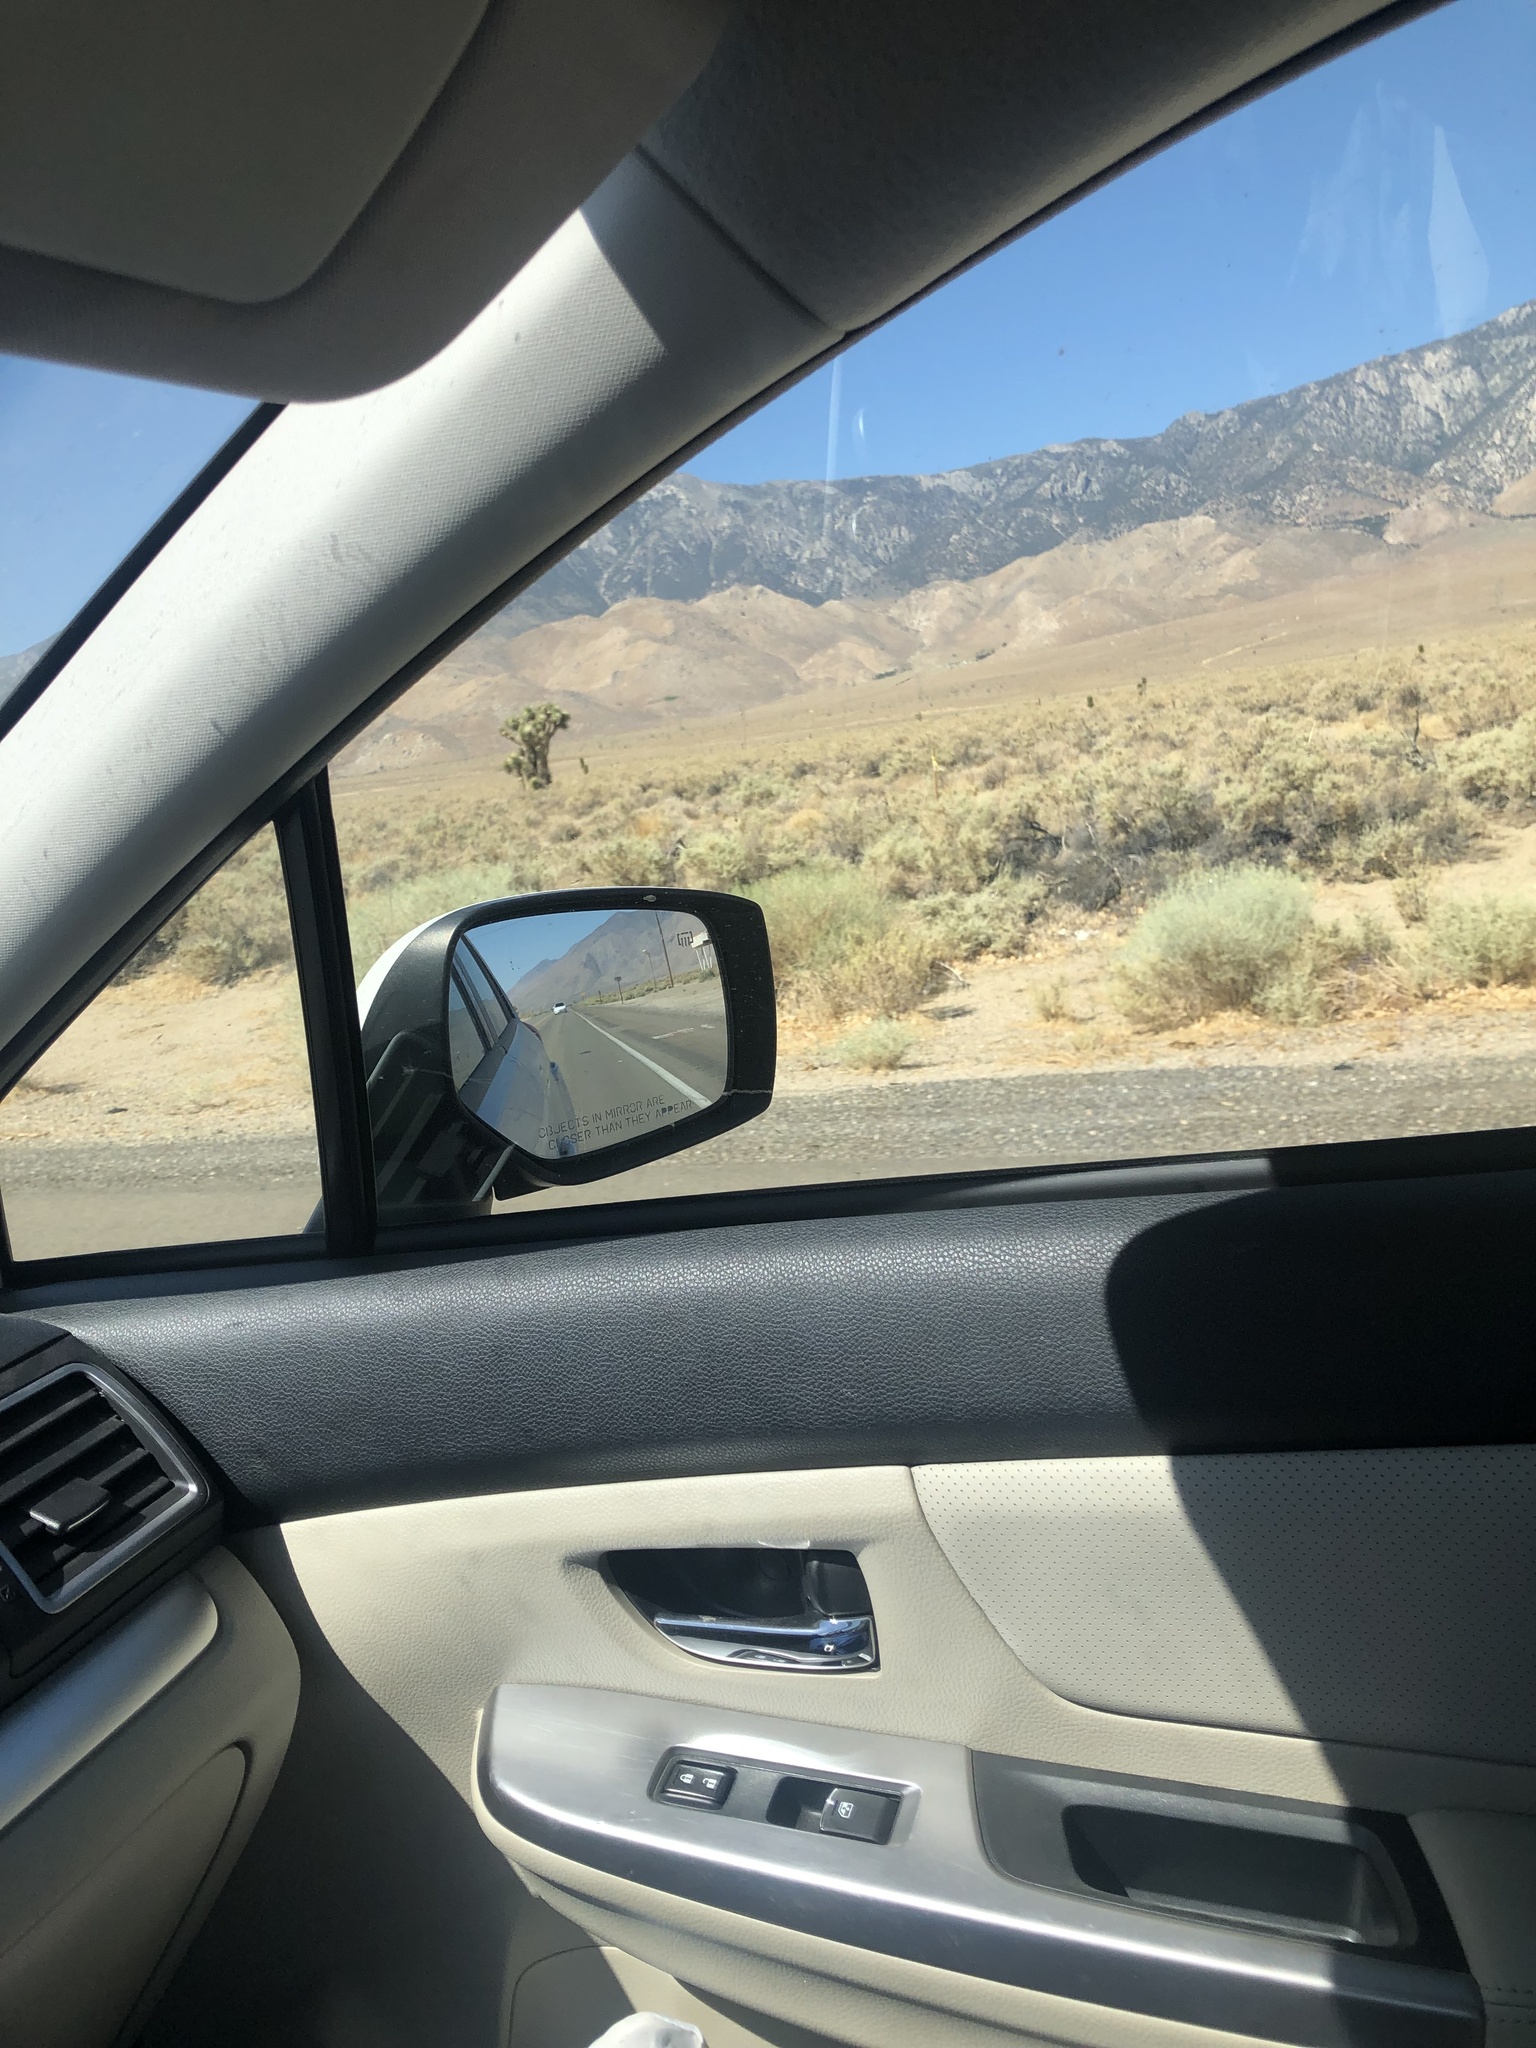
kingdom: Plantae
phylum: Tracheophyta
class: Liliopsida
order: Asparagales
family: Asparagaceae
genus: Yucca
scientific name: Yucca brevifolia
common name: Joshua tree
